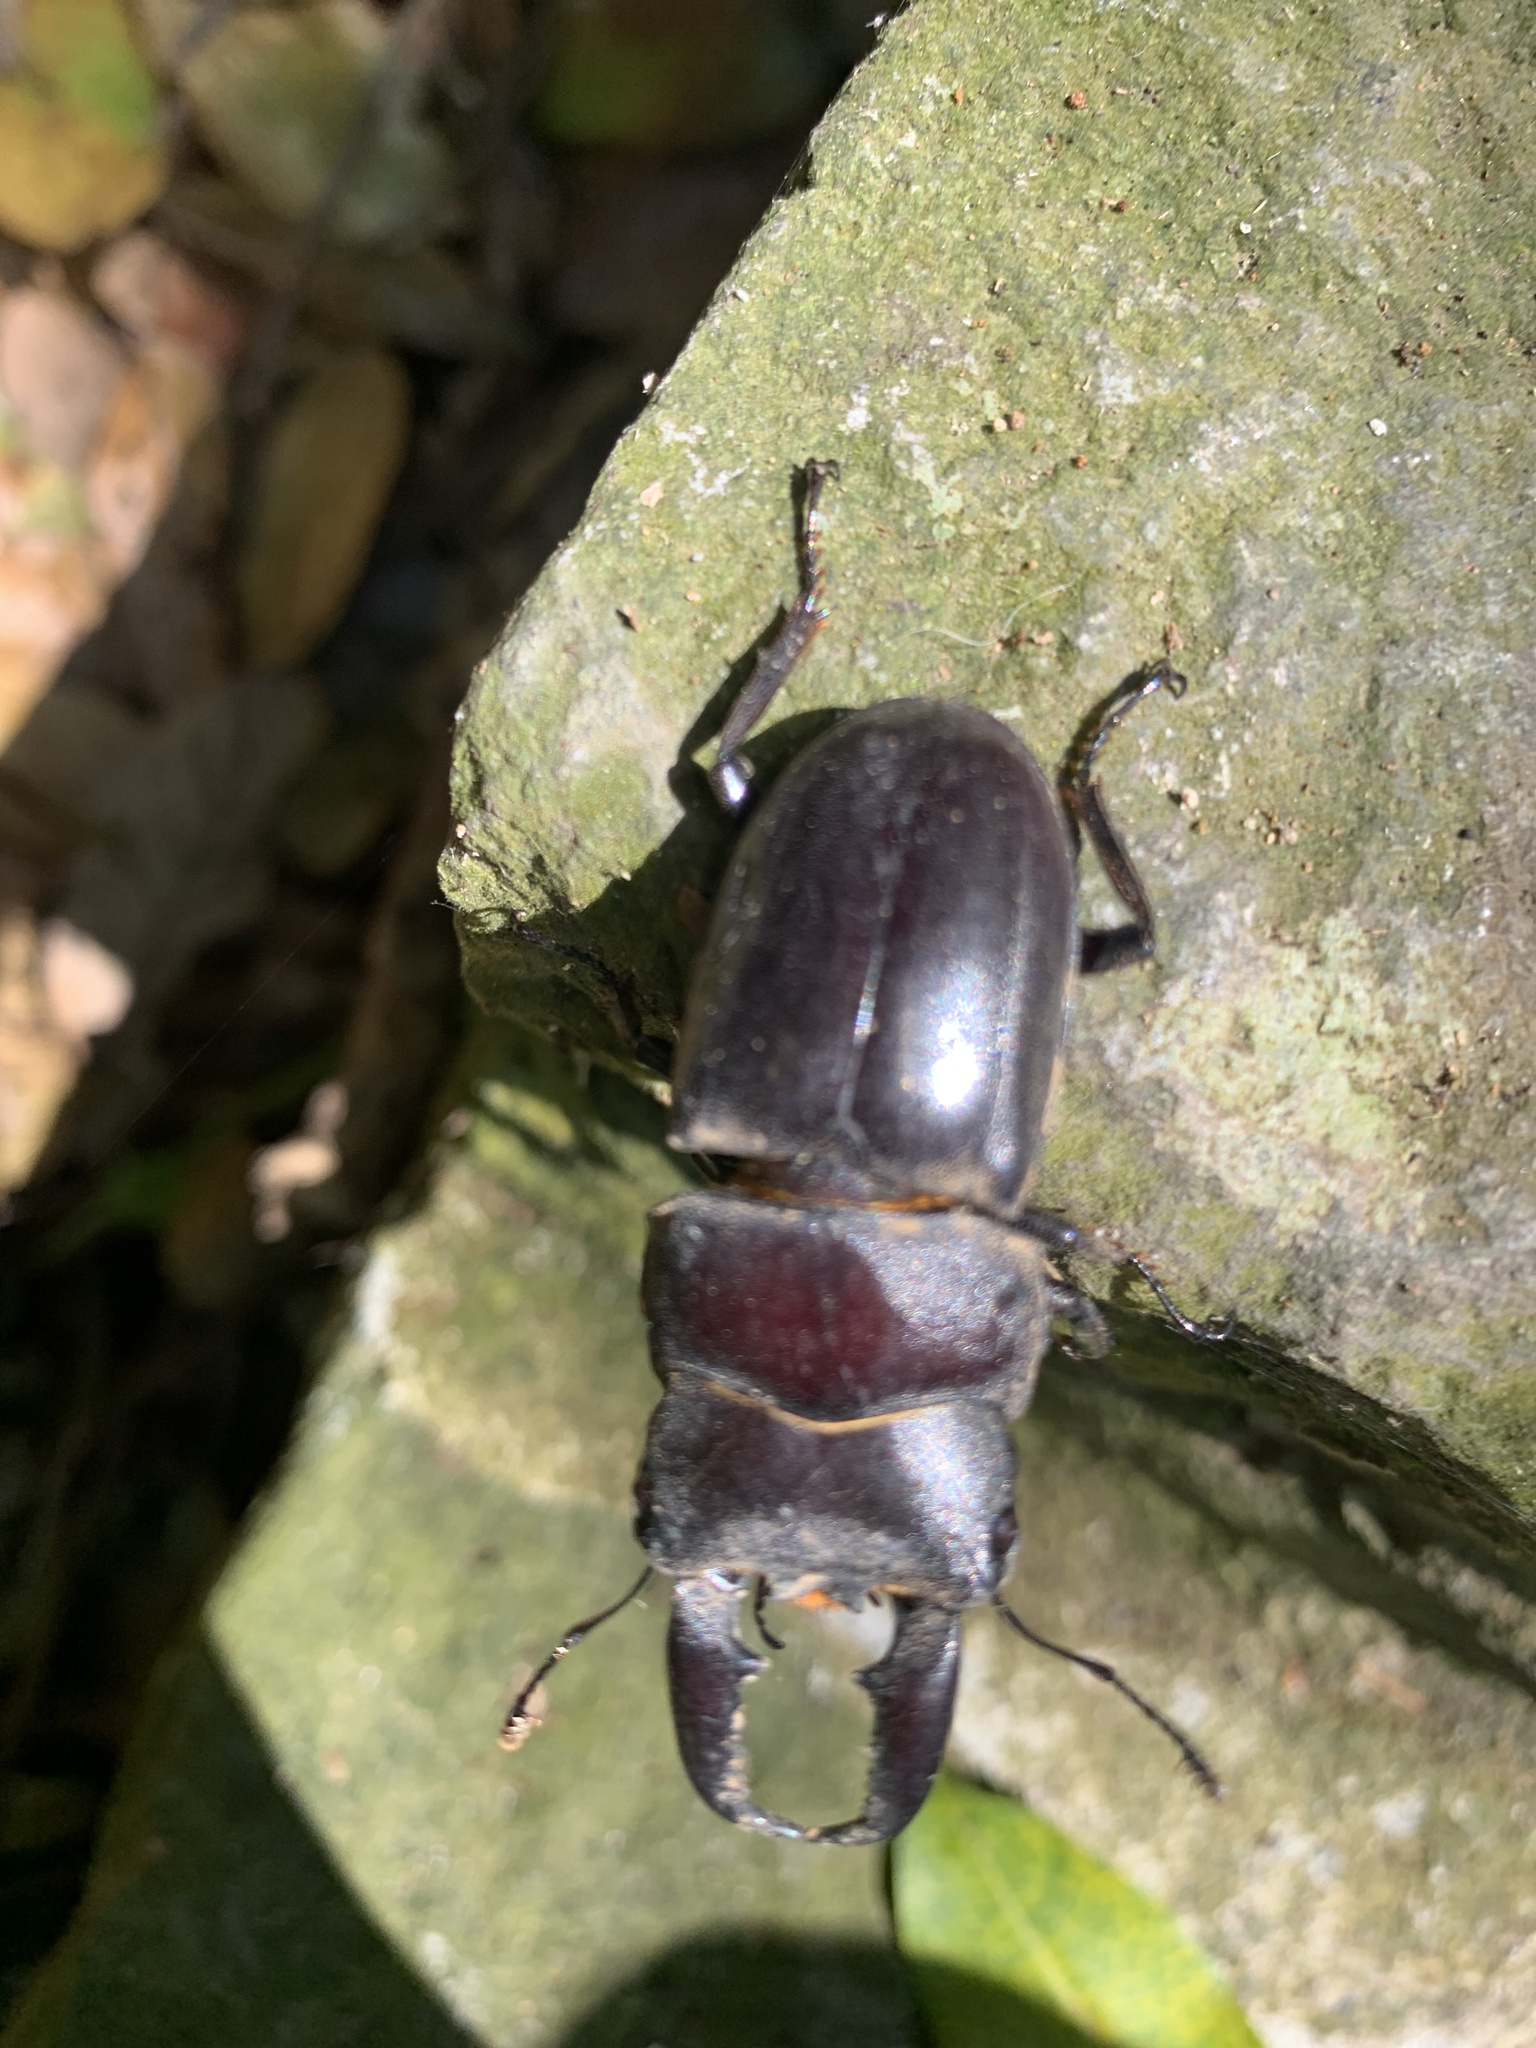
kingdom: Animalia
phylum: Arthropoda
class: Insecta
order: Coleoptera
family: Lucanidae
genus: Serrognathus
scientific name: Serrognathus titanus
